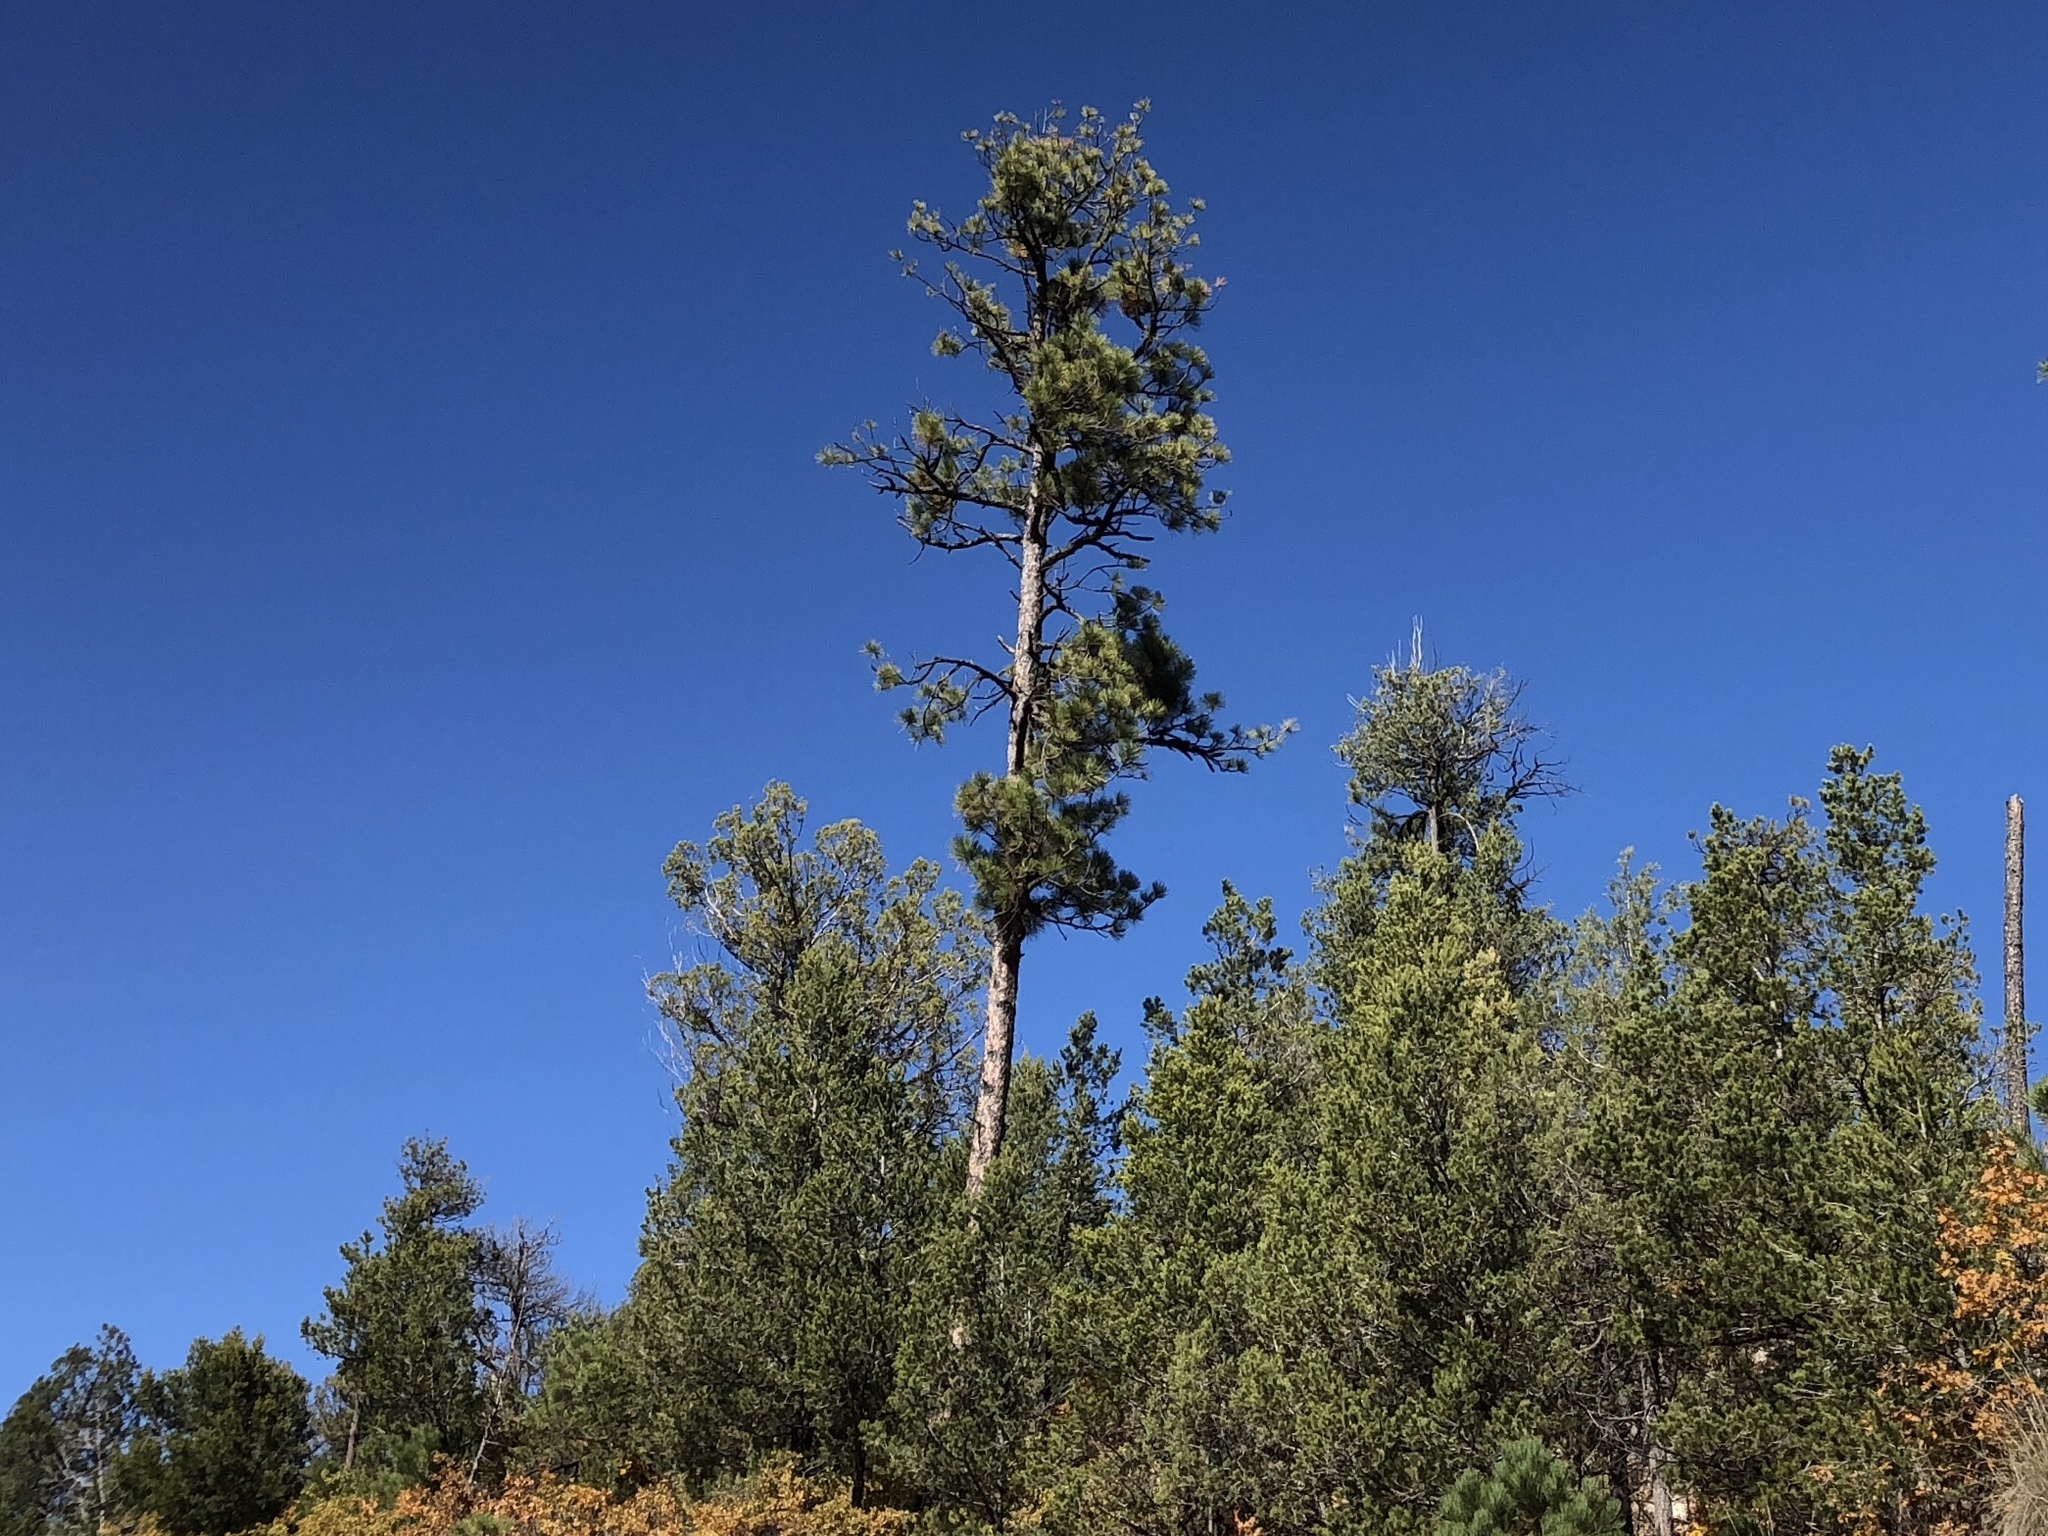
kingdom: Plantae
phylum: Tracheophyta
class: Pinopsida
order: Pinales
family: Pinaceae
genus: Pinus
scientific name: Pinus ponderosa
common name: Western yellow-pine
